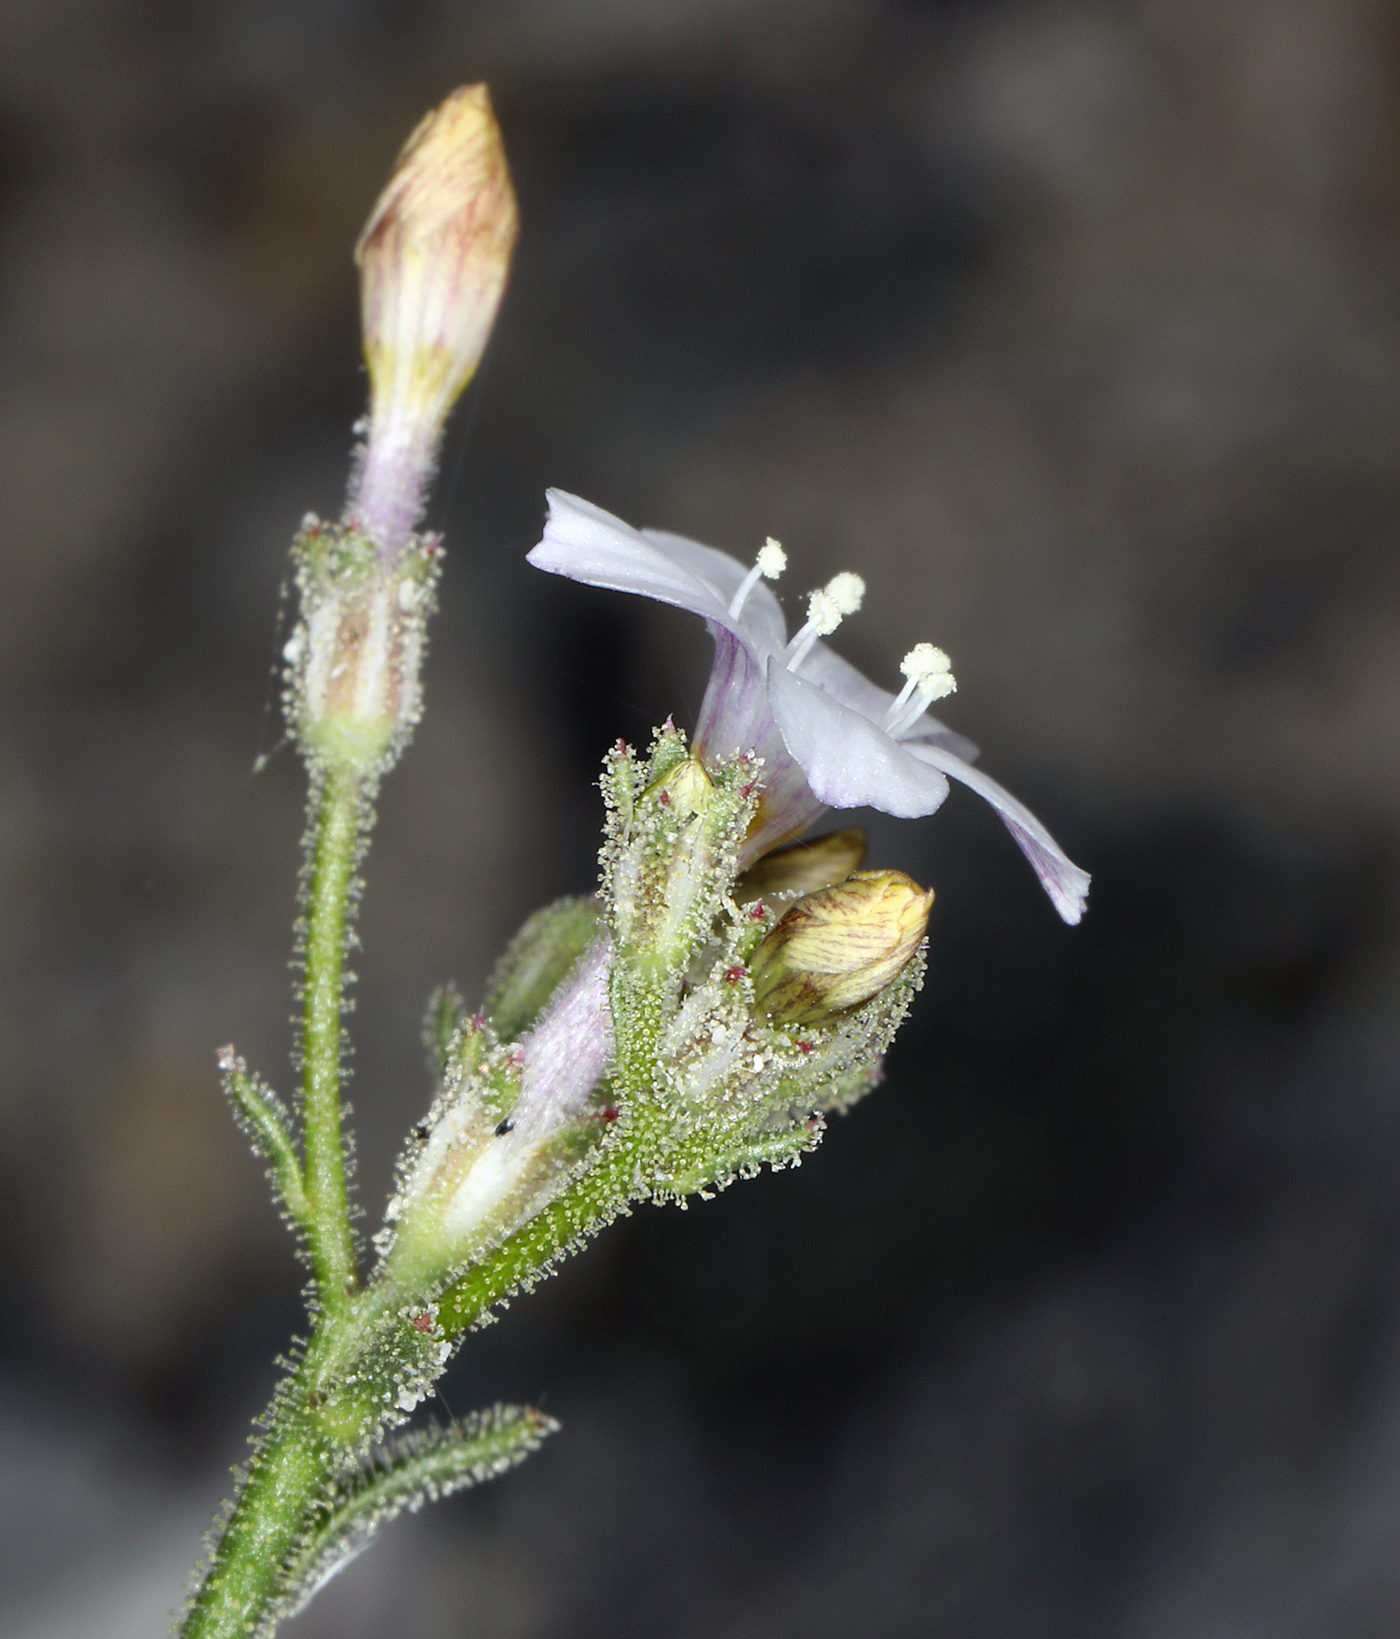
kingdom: Plantae
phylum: Tracheophyta
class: Magnoliopsida
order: Ericales
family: Polemoniaceae
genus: Aliciella
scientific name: Aliciella hutchinsifolia
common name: Desert pale gilia
